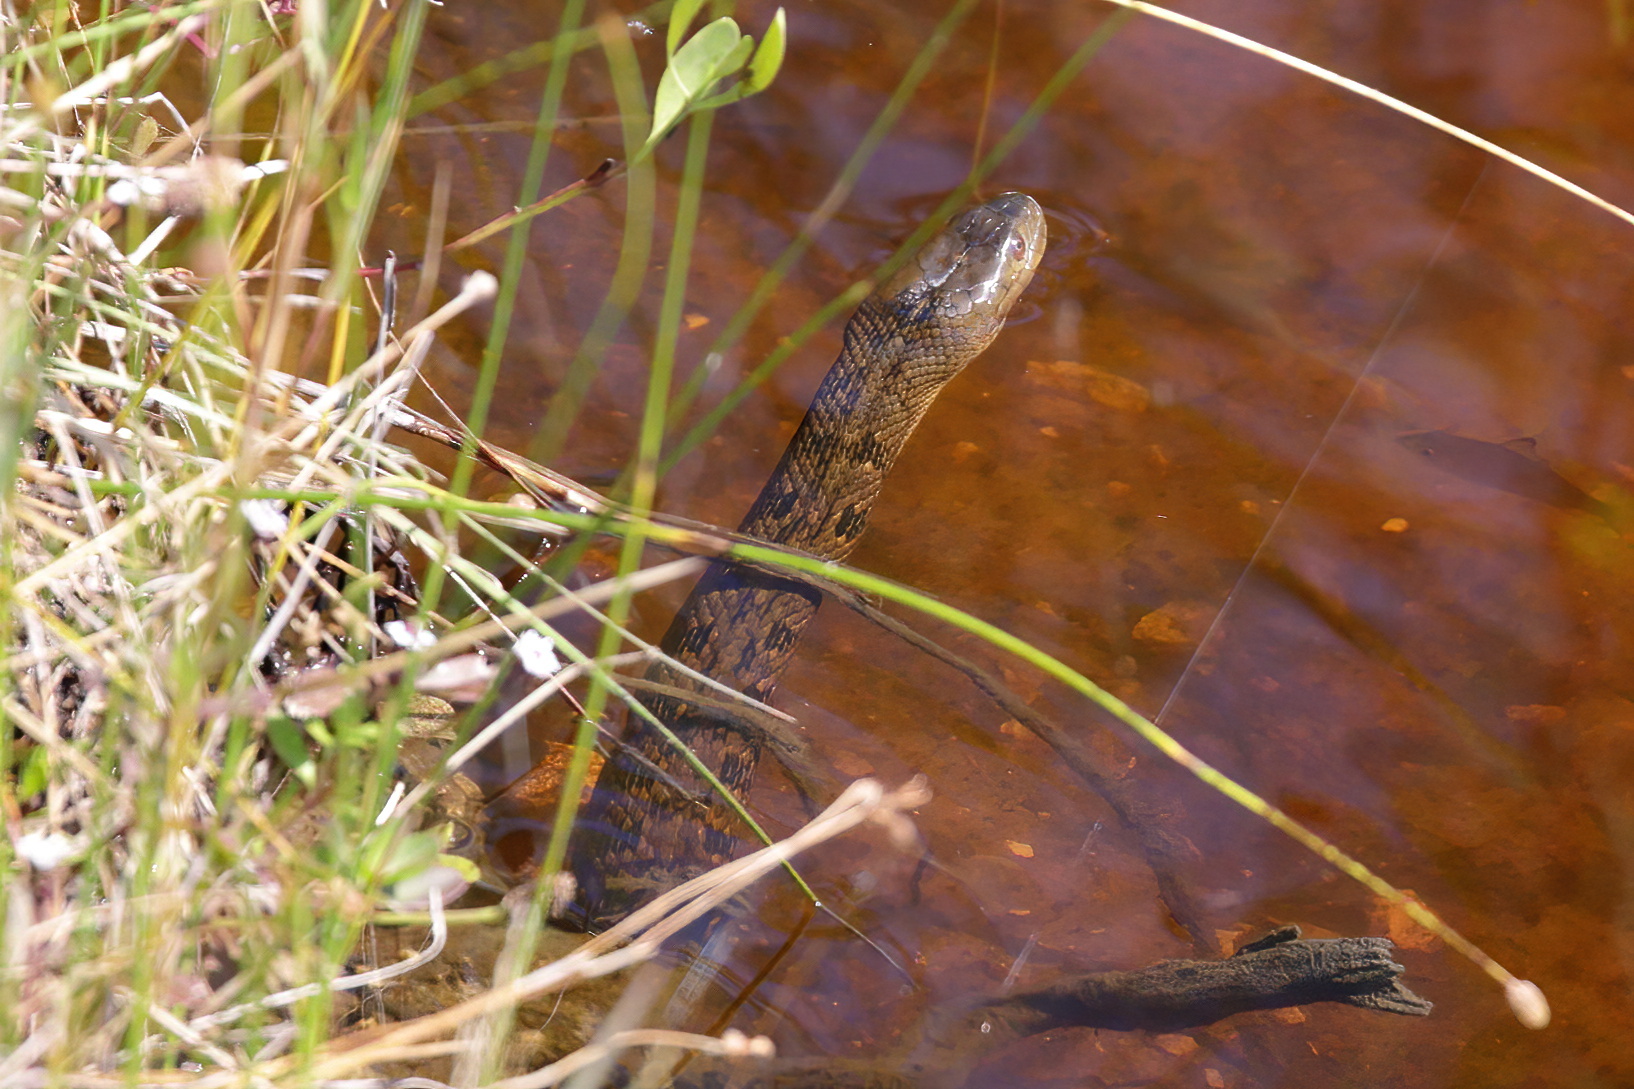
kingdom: Animalia
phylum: Chordata
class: Squamata
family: Colubridae
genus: Nerodia
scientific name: Nerodia cyclopion
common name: Mississippi green water snake
